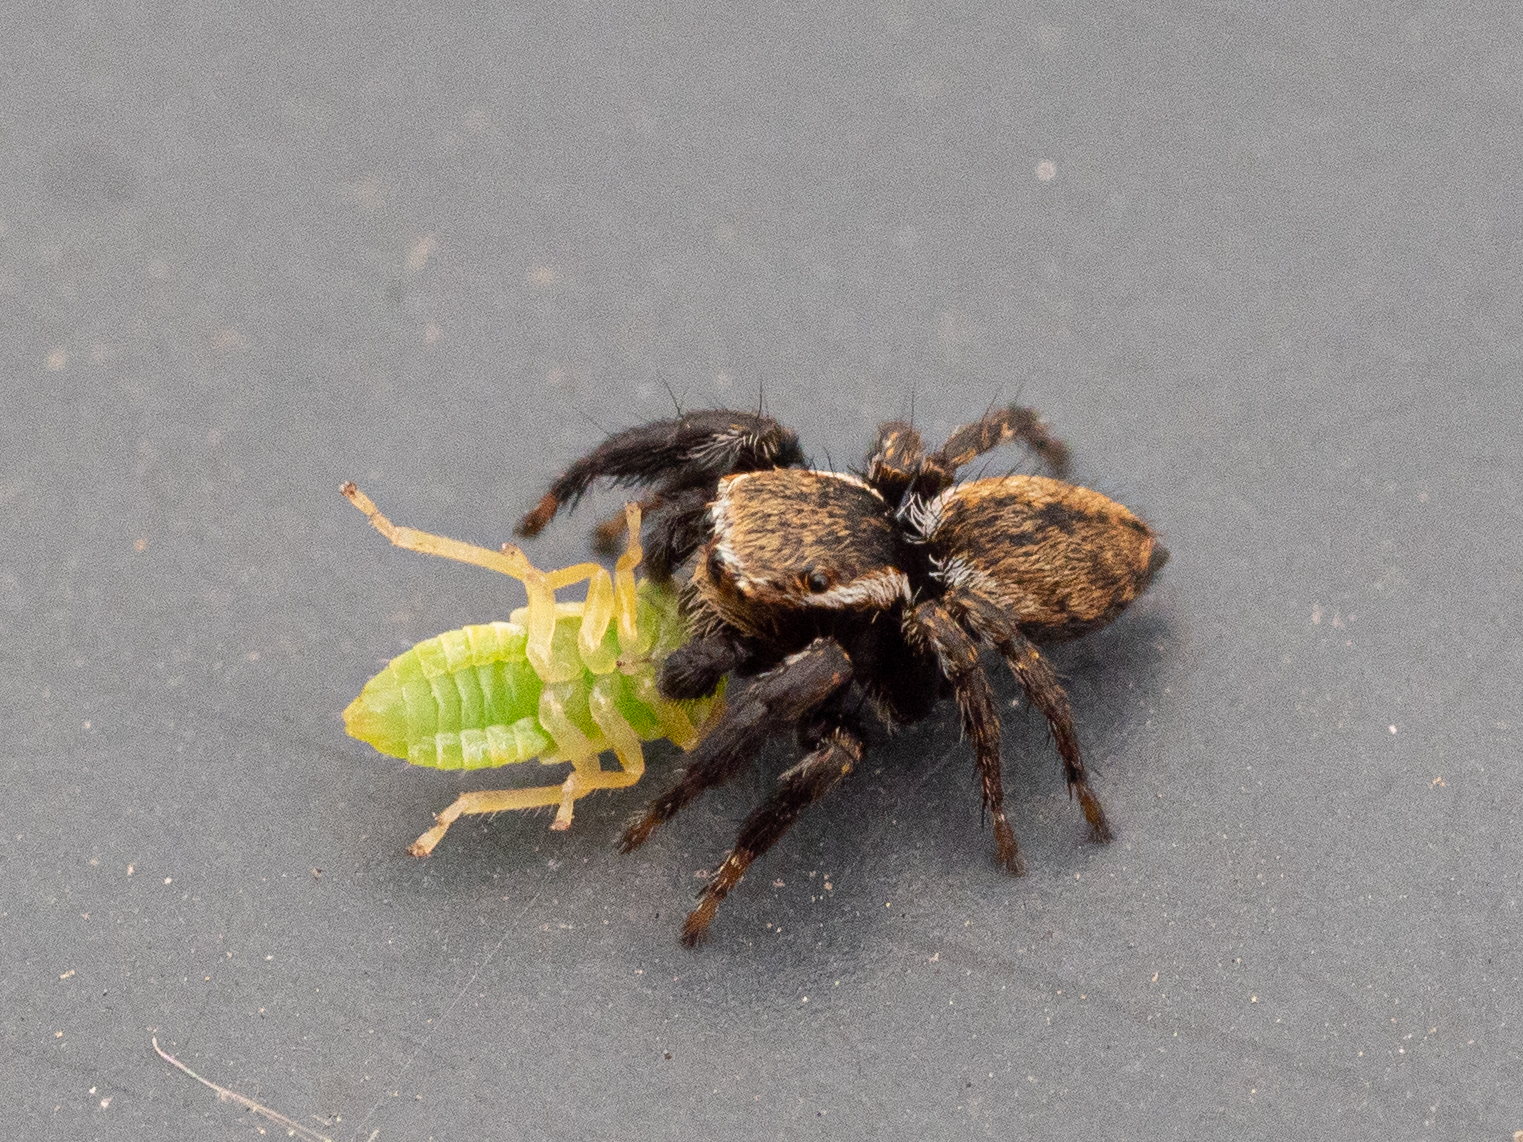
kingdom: Animalia
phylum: Arthropoda
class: Arachnida
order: Araneae
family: Salticidae
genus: Evarcha
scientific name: Evarcha michailovi
